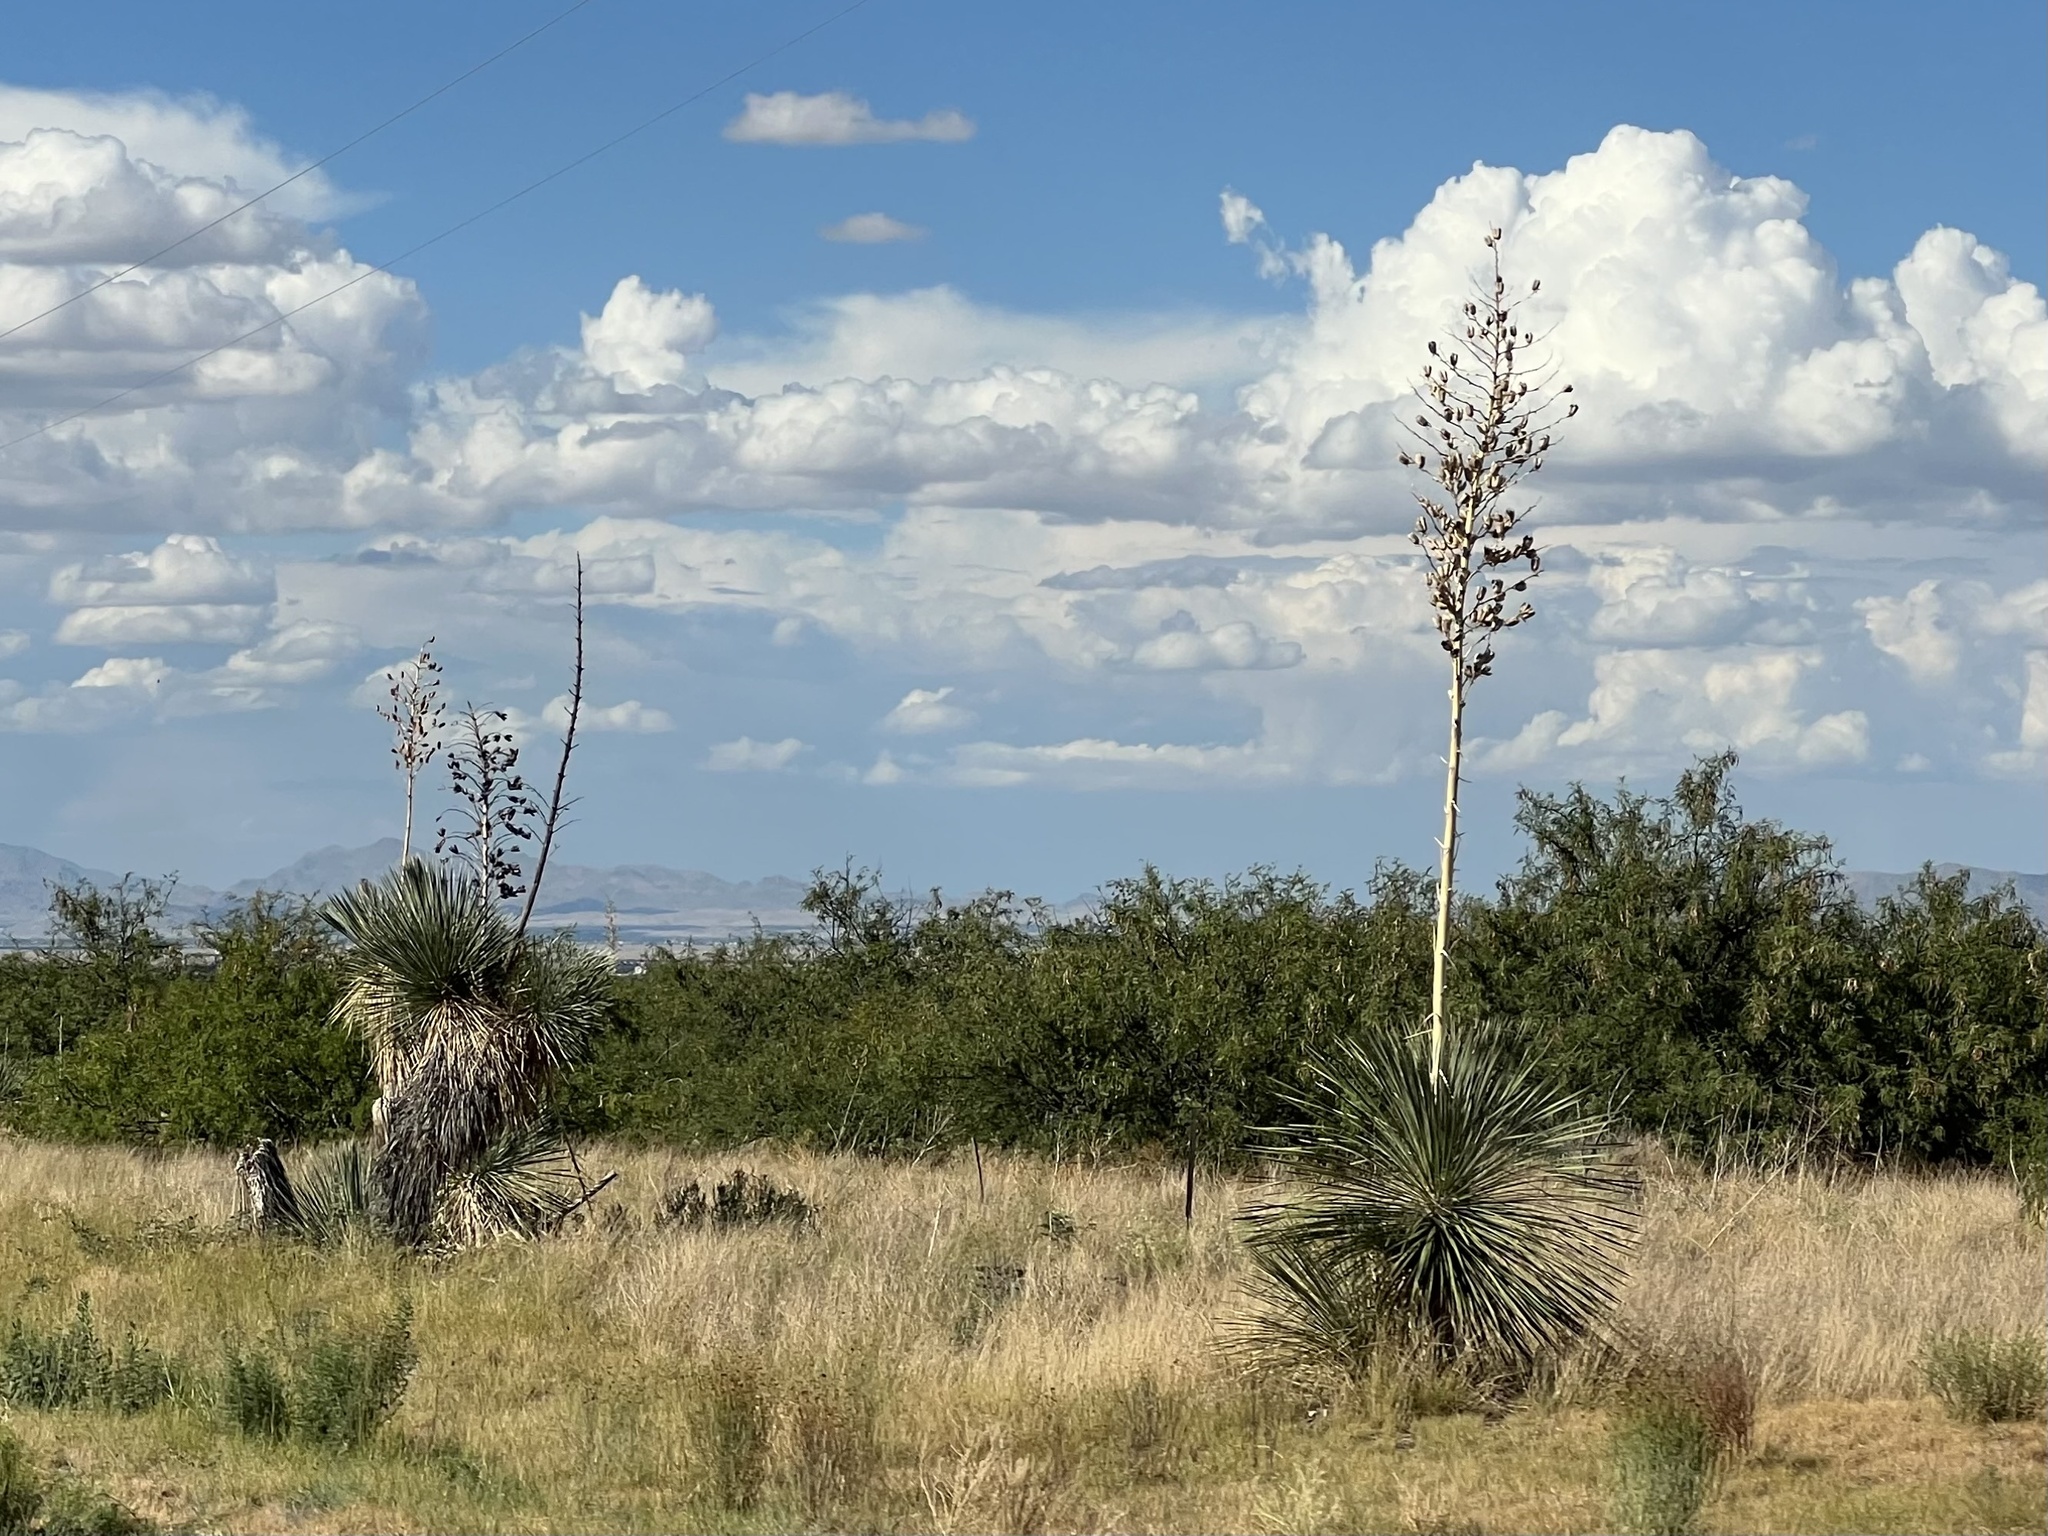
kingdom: Plantae
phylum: Tracheophyta
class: Liliopsida
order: Asparagales
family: Asparagaceae
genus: Yucca
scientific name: Yucca elata
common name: Palmella
